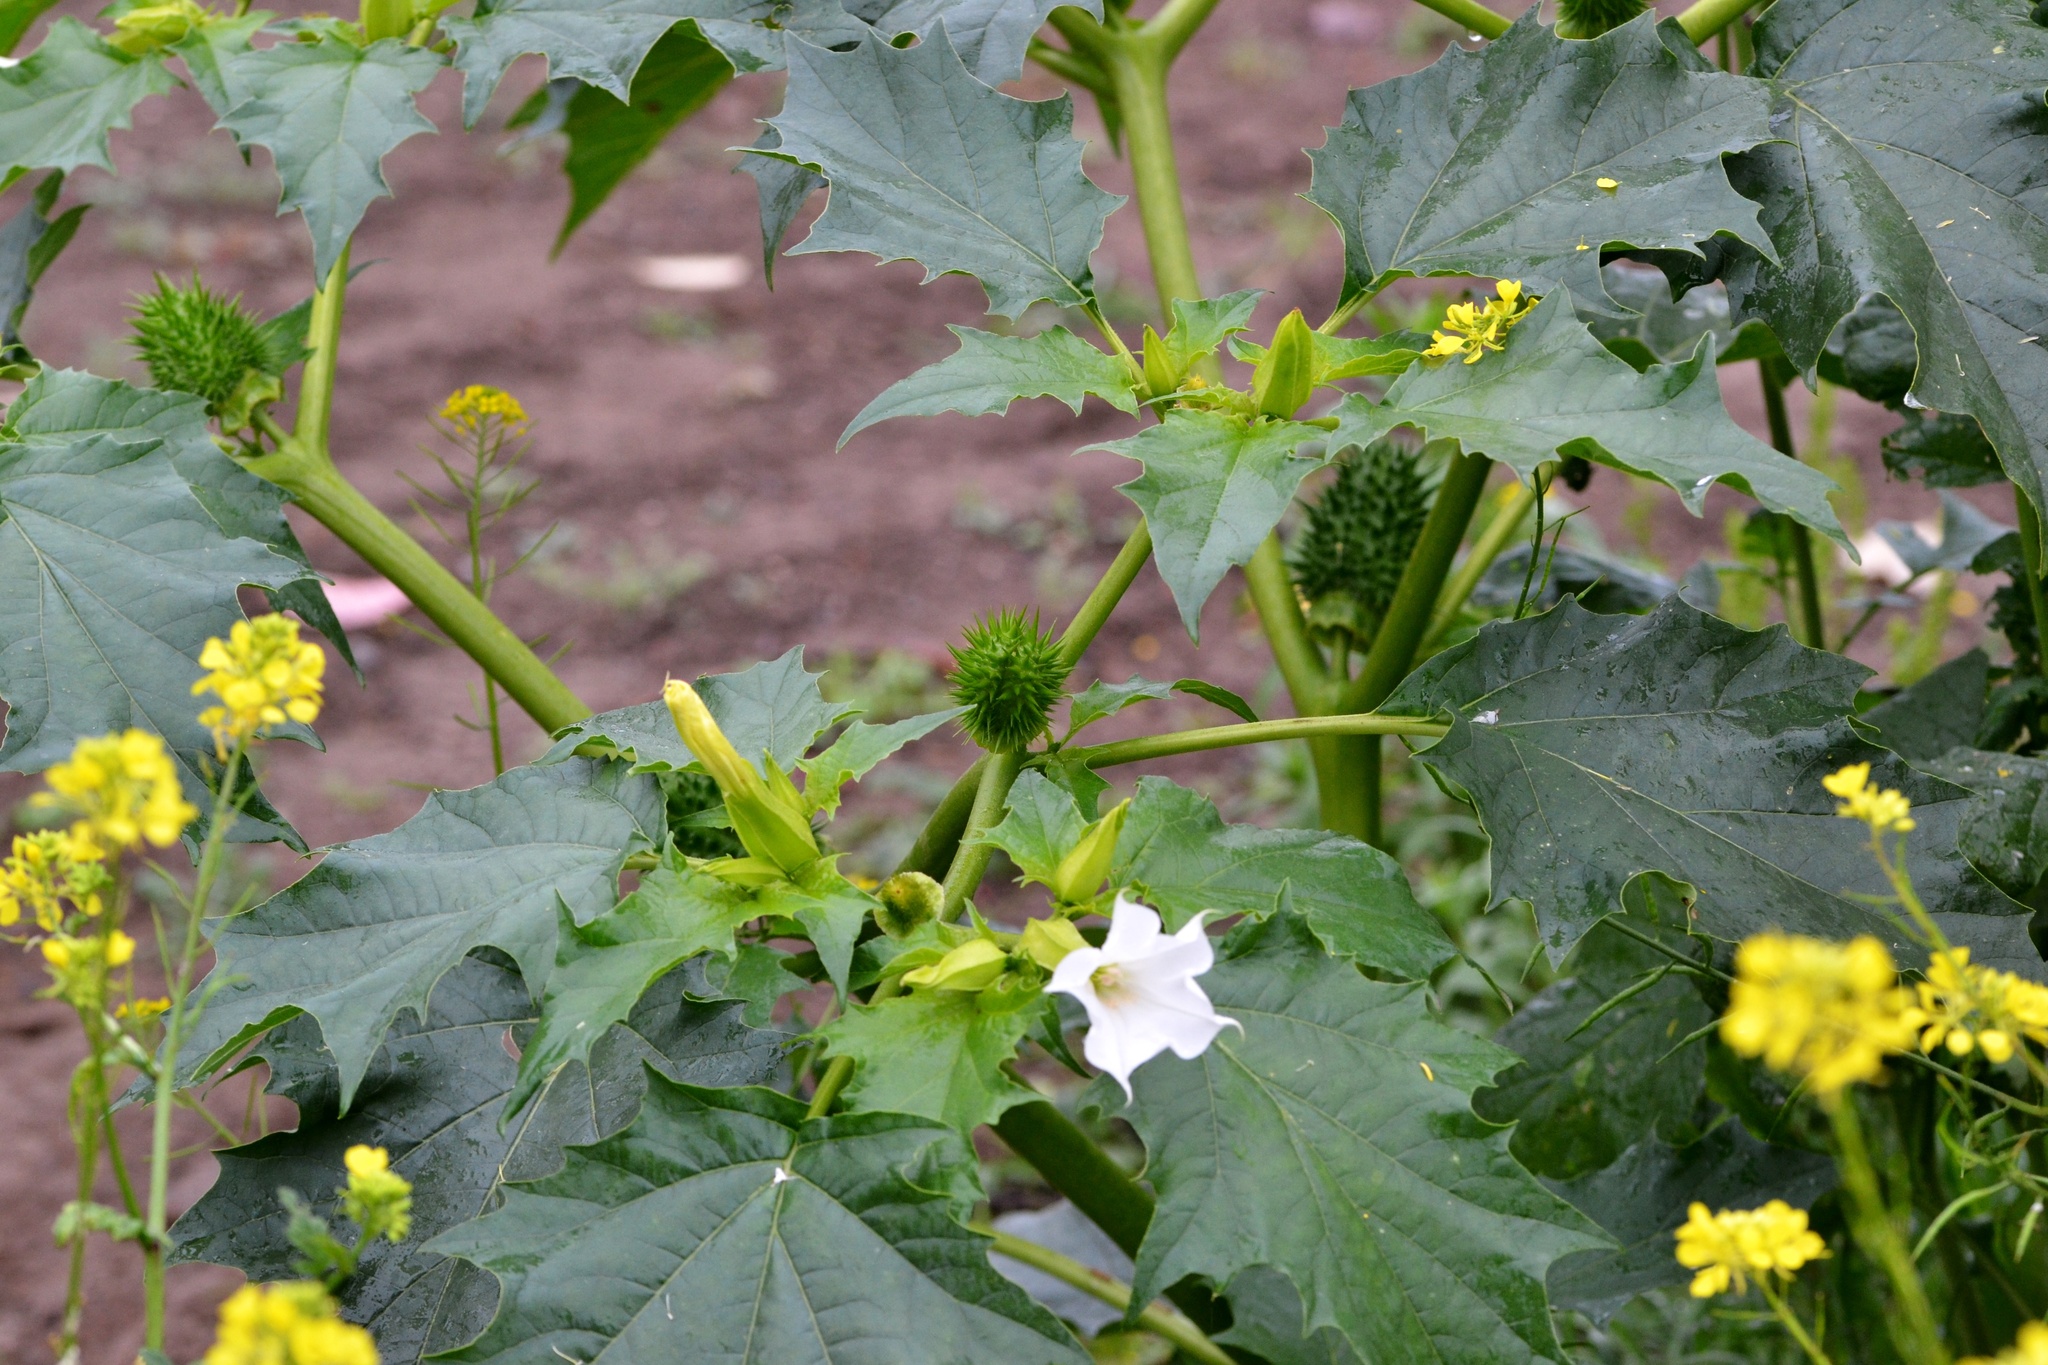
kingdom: Plantae
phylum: Tracheophyta
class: Magnoliopsida
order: Solanales
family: Solanaceae
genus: Datura
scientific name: Datura stramonium
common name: Thorn-apple
